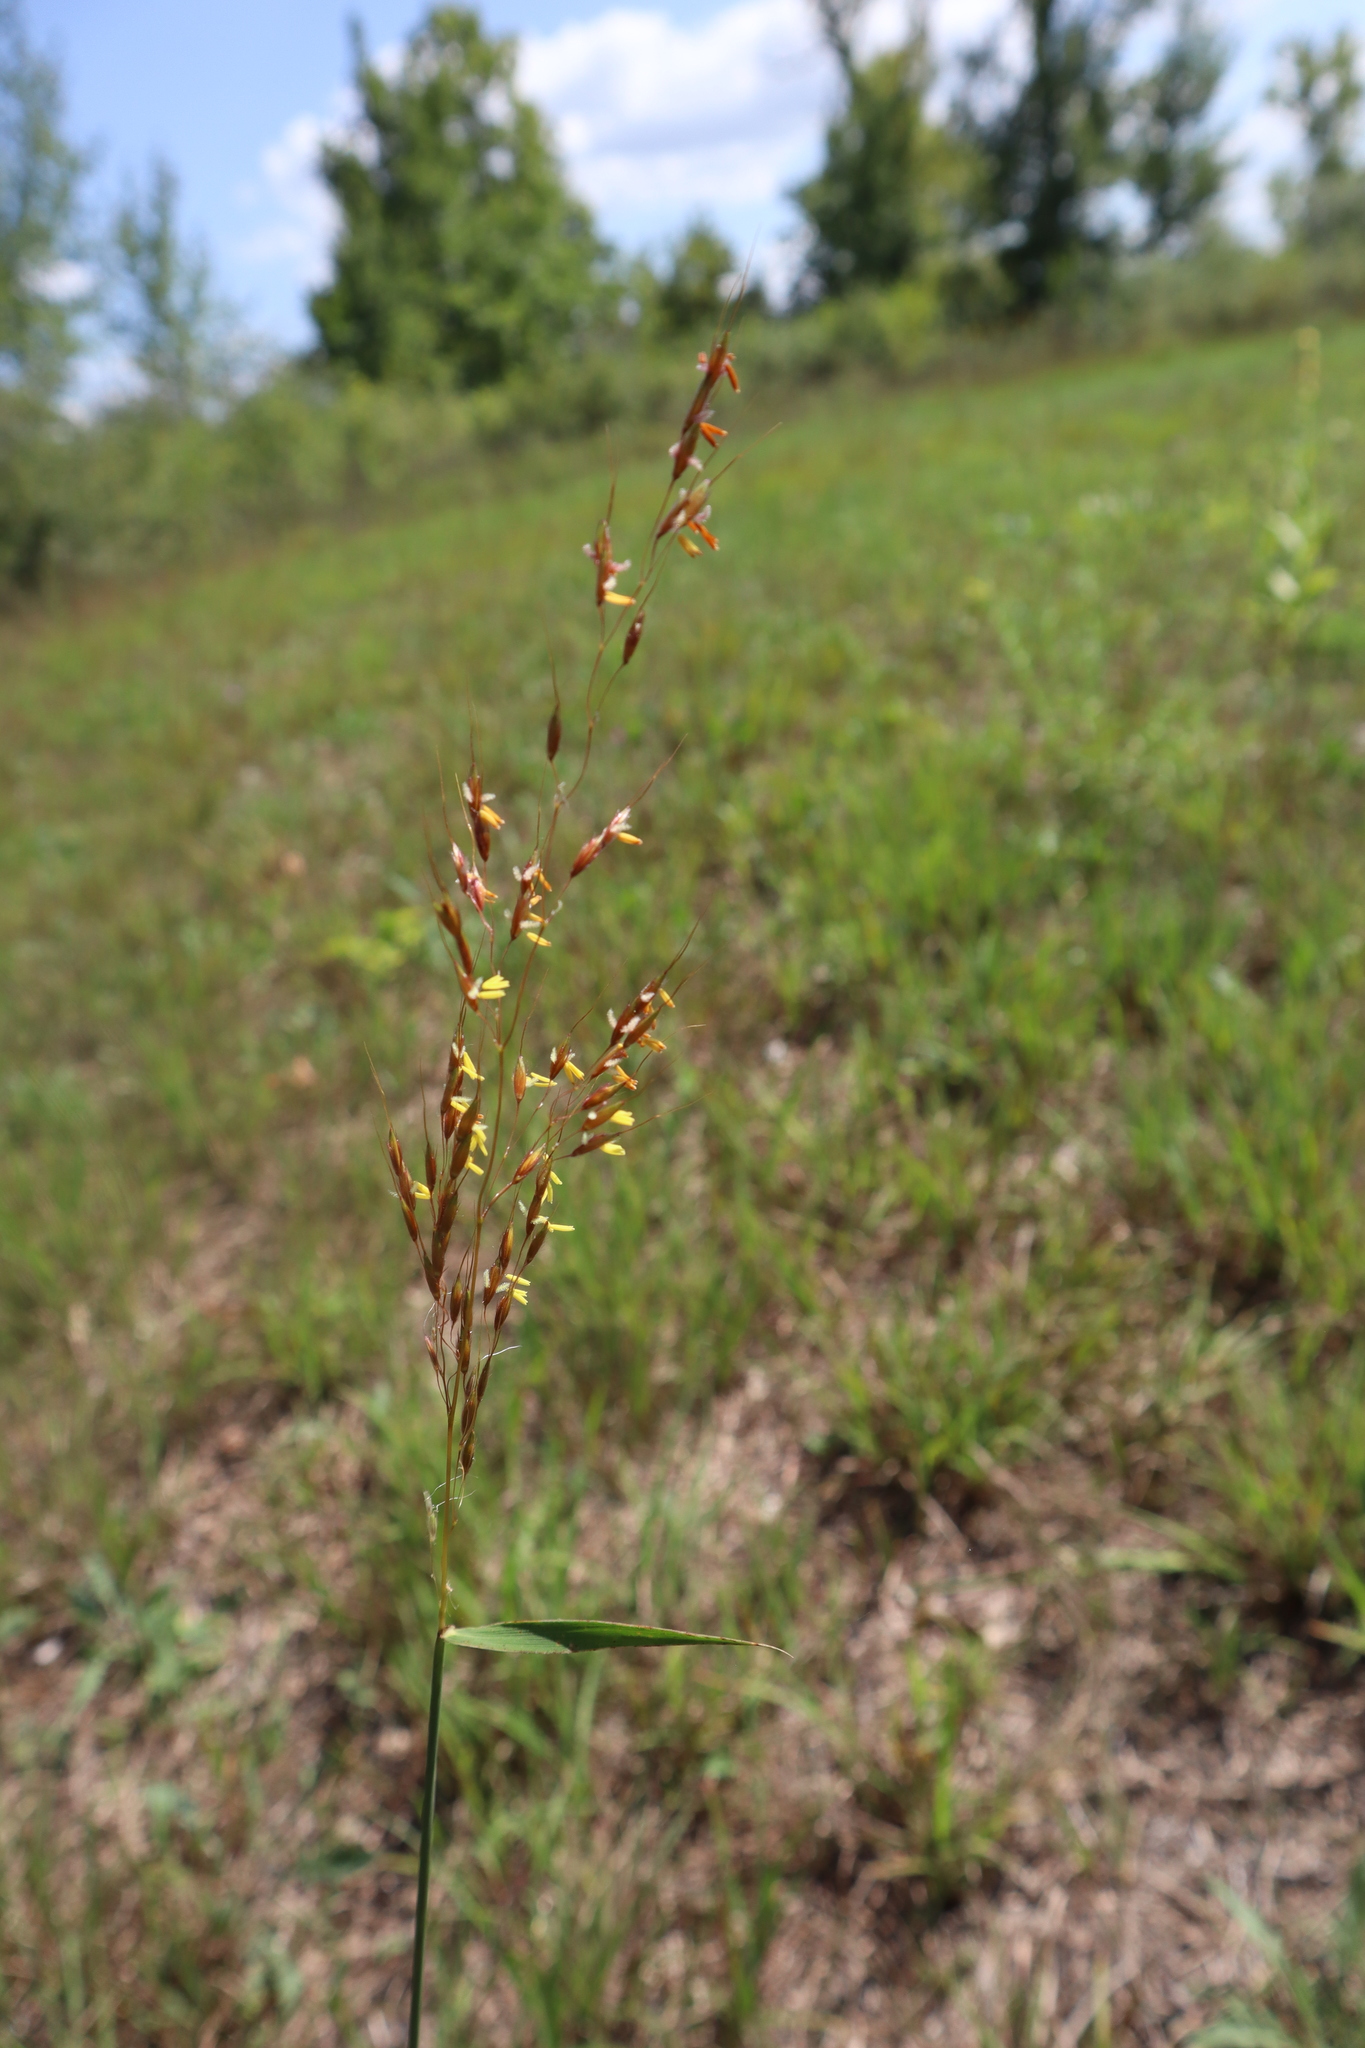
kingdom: Plantae
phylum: Tracheophyta
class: Liliopsida
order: Poales
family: Poaceae
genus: Sorghastrum
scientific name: Sorghastrum nutans
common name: Indian grass
